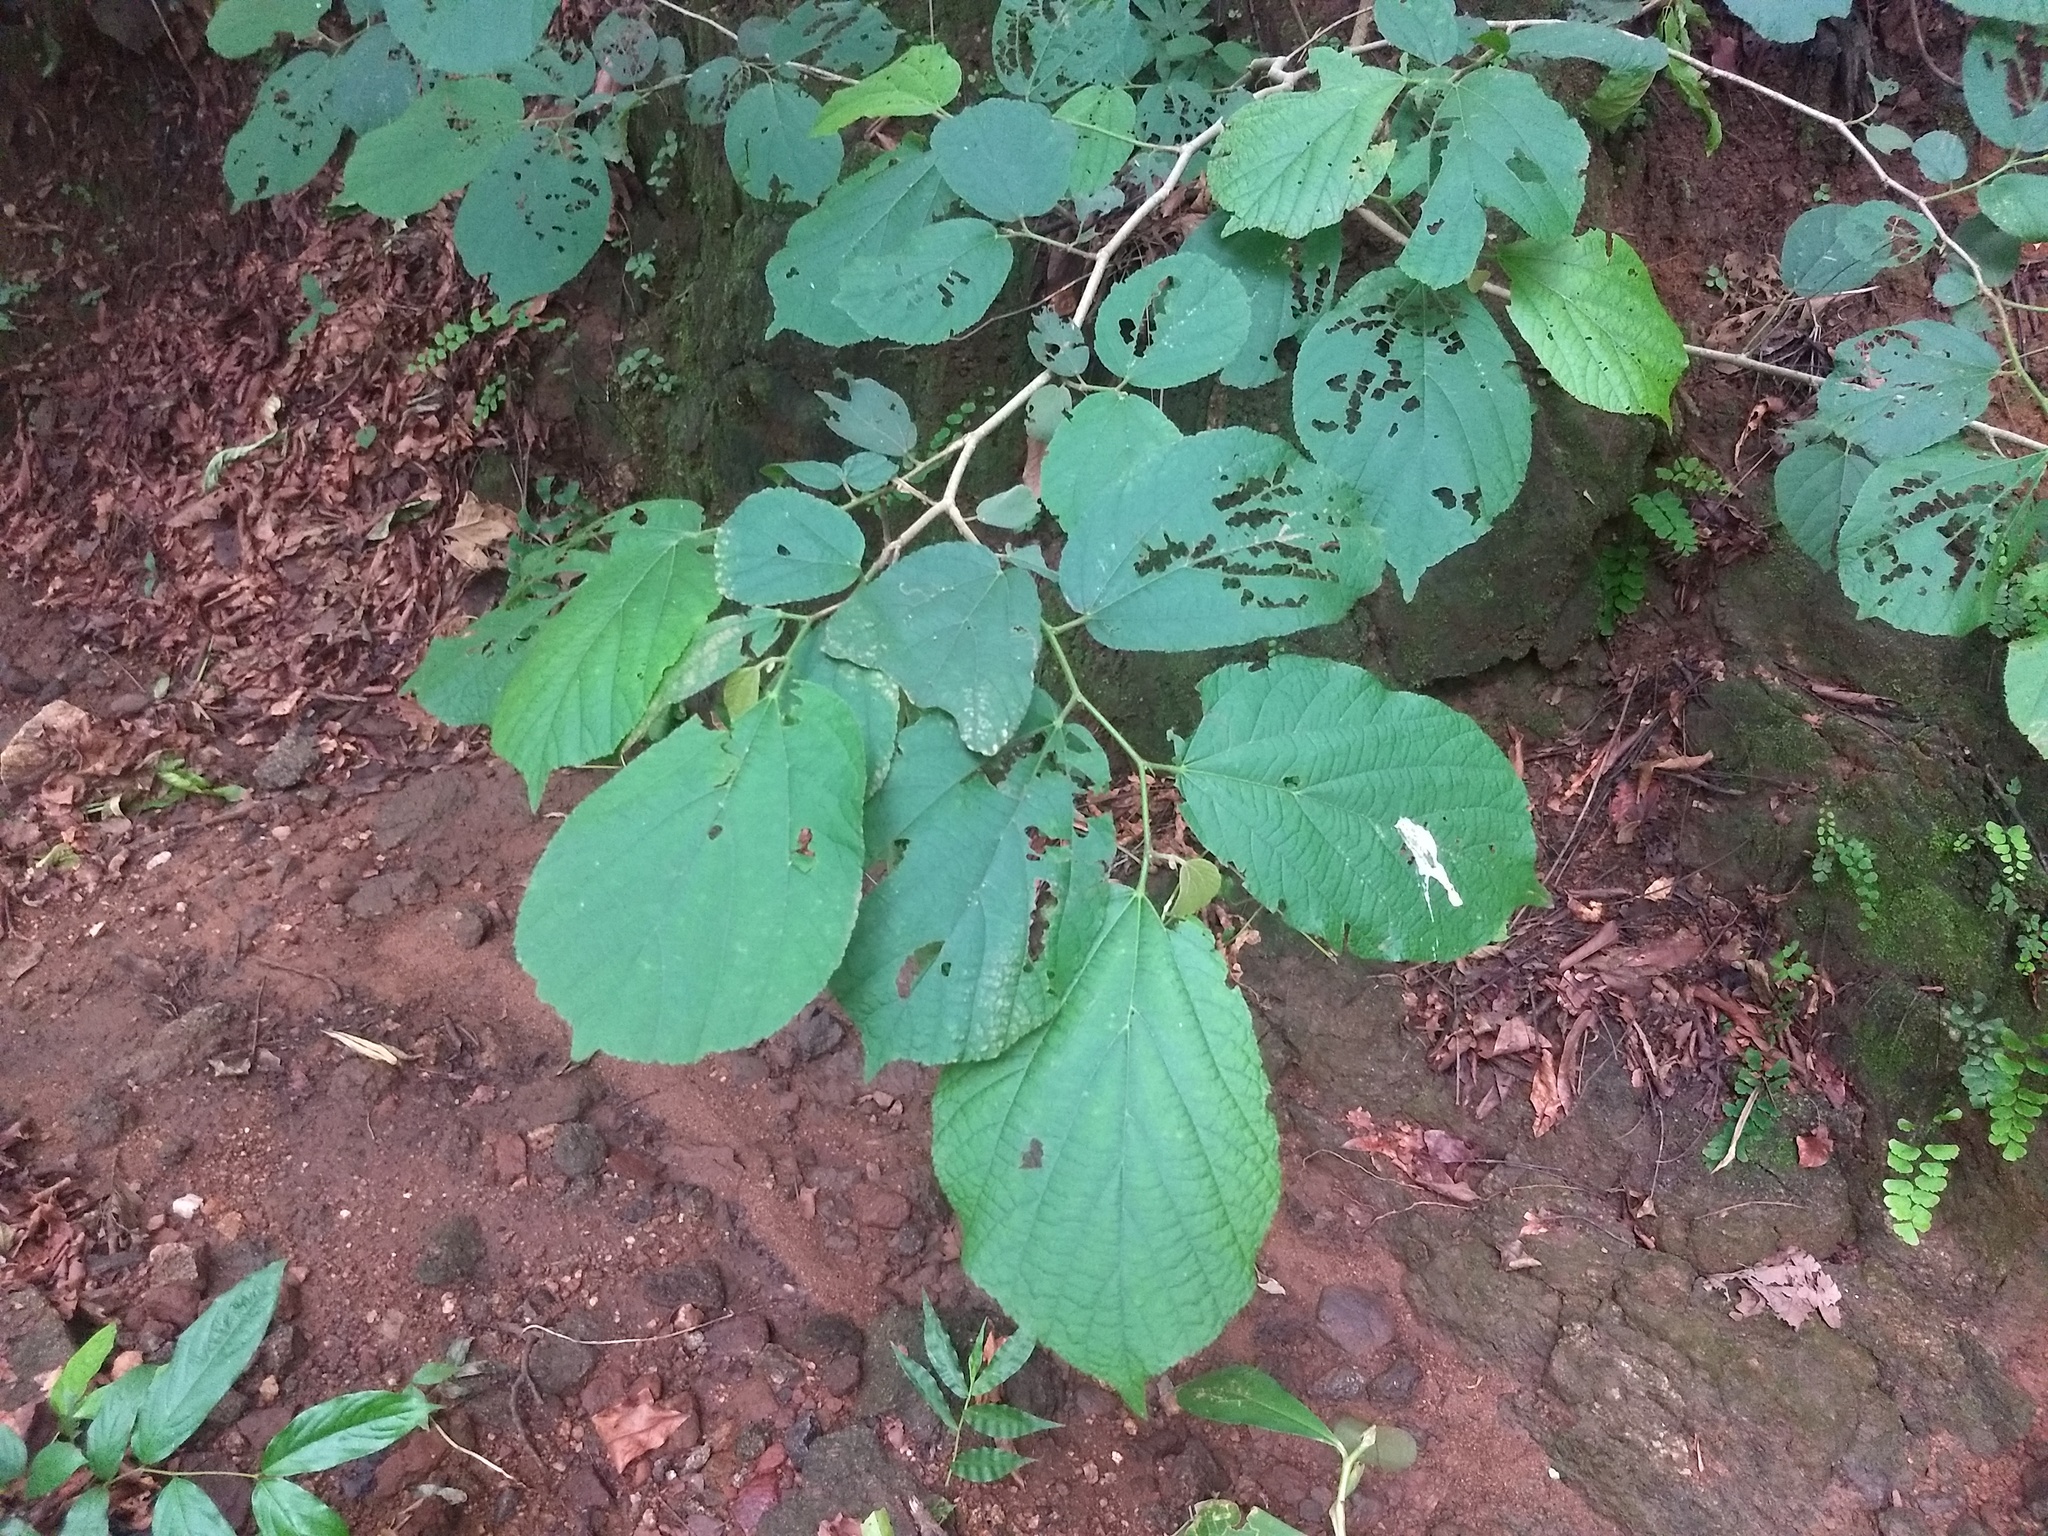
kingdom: Plantae
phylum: Tracheophyta
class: Magnoliopsida
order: Malvales
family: Malvaceae
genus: Helicteres
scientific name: Helicteres isora
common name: East indian screwtree
